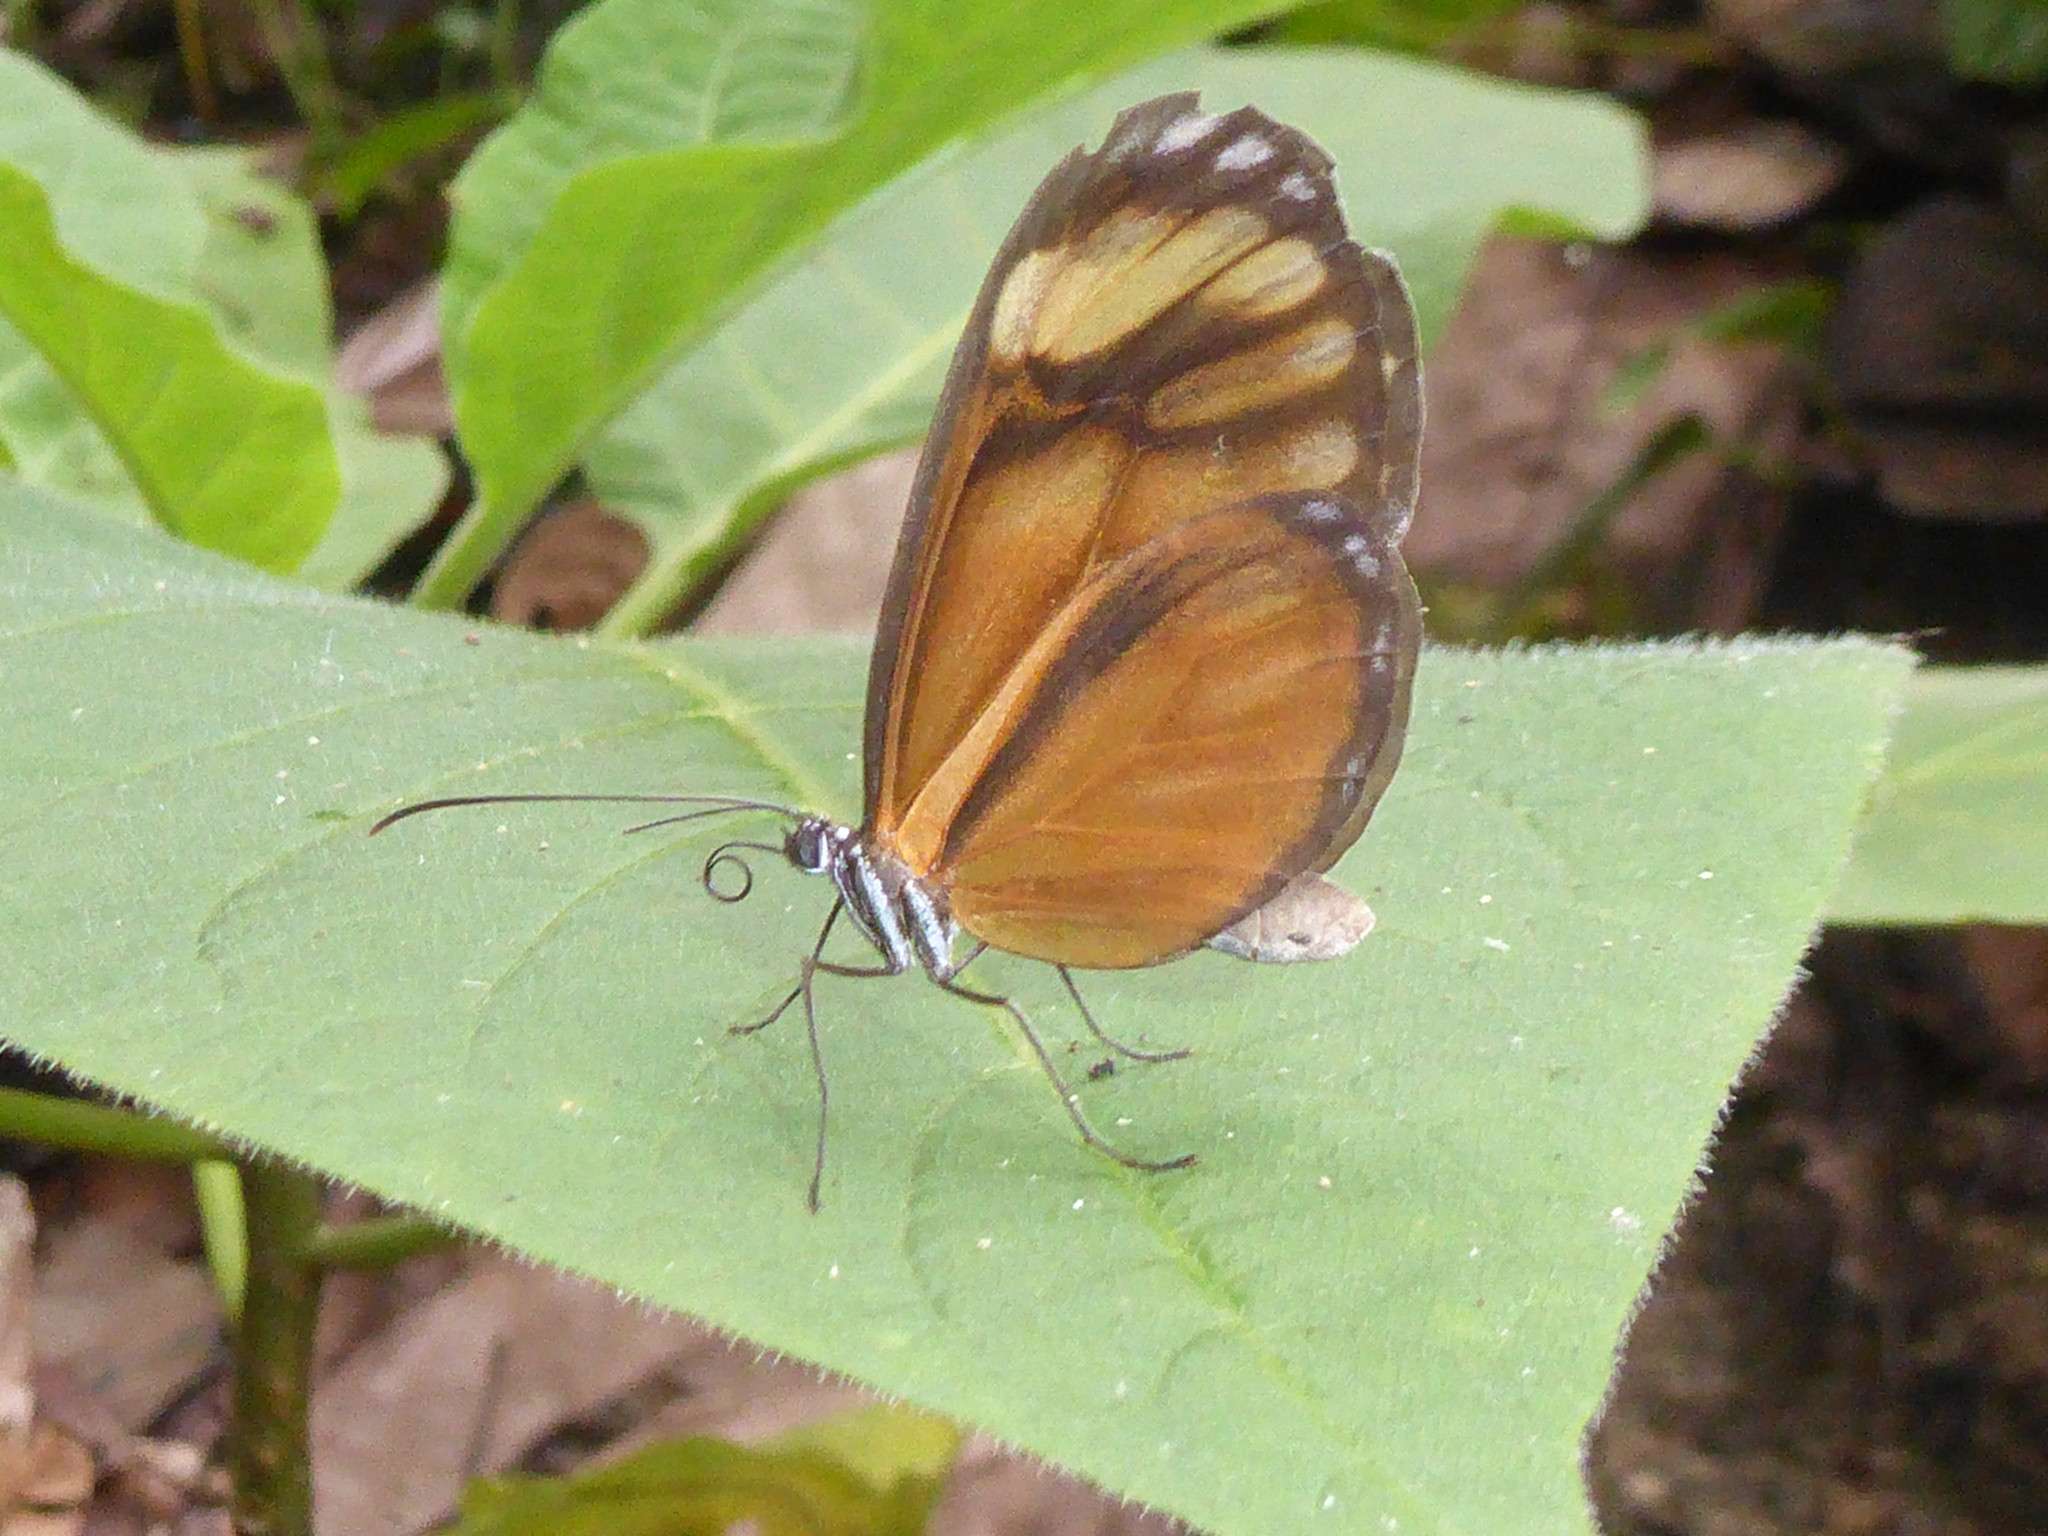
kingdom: Animalia
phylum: Arthropoda
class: Insecta
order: Lepidoptera
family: Nymphalidae
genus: Hypoleria
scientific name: Hypoleria ocalea
